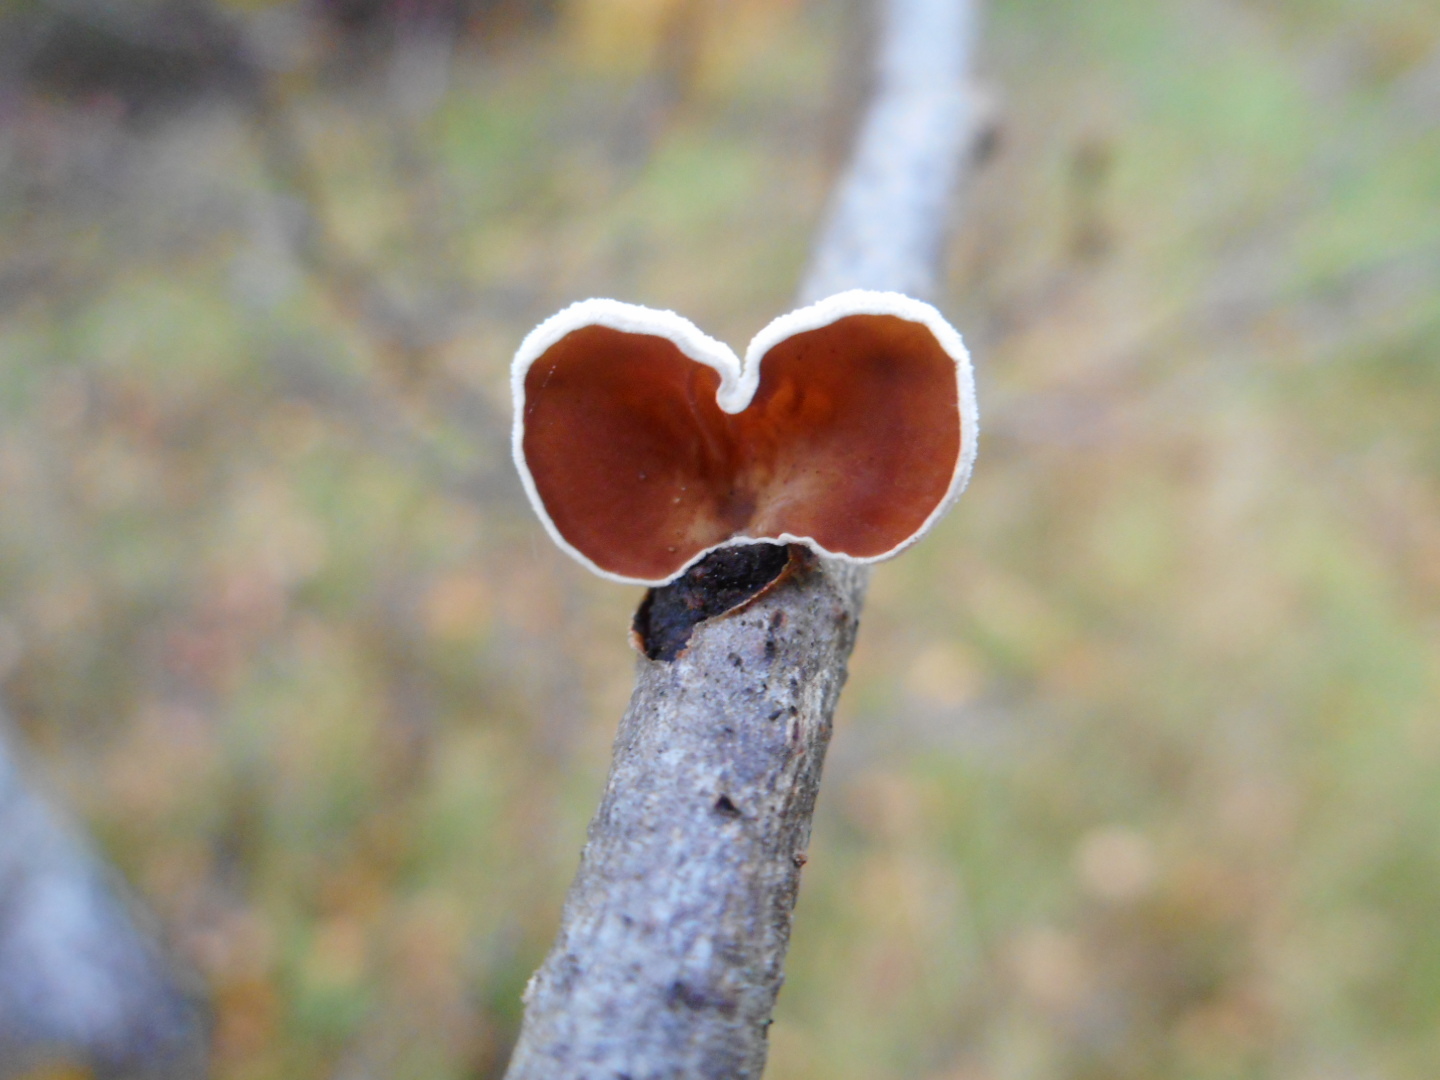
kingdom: Fungi
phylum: Basidiomycota
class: Agaricomycetes
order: Agaricales
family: Schizophyllaceae
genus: Schizophyllum
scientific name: Schizophyllum amplum
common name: Poplar bells
